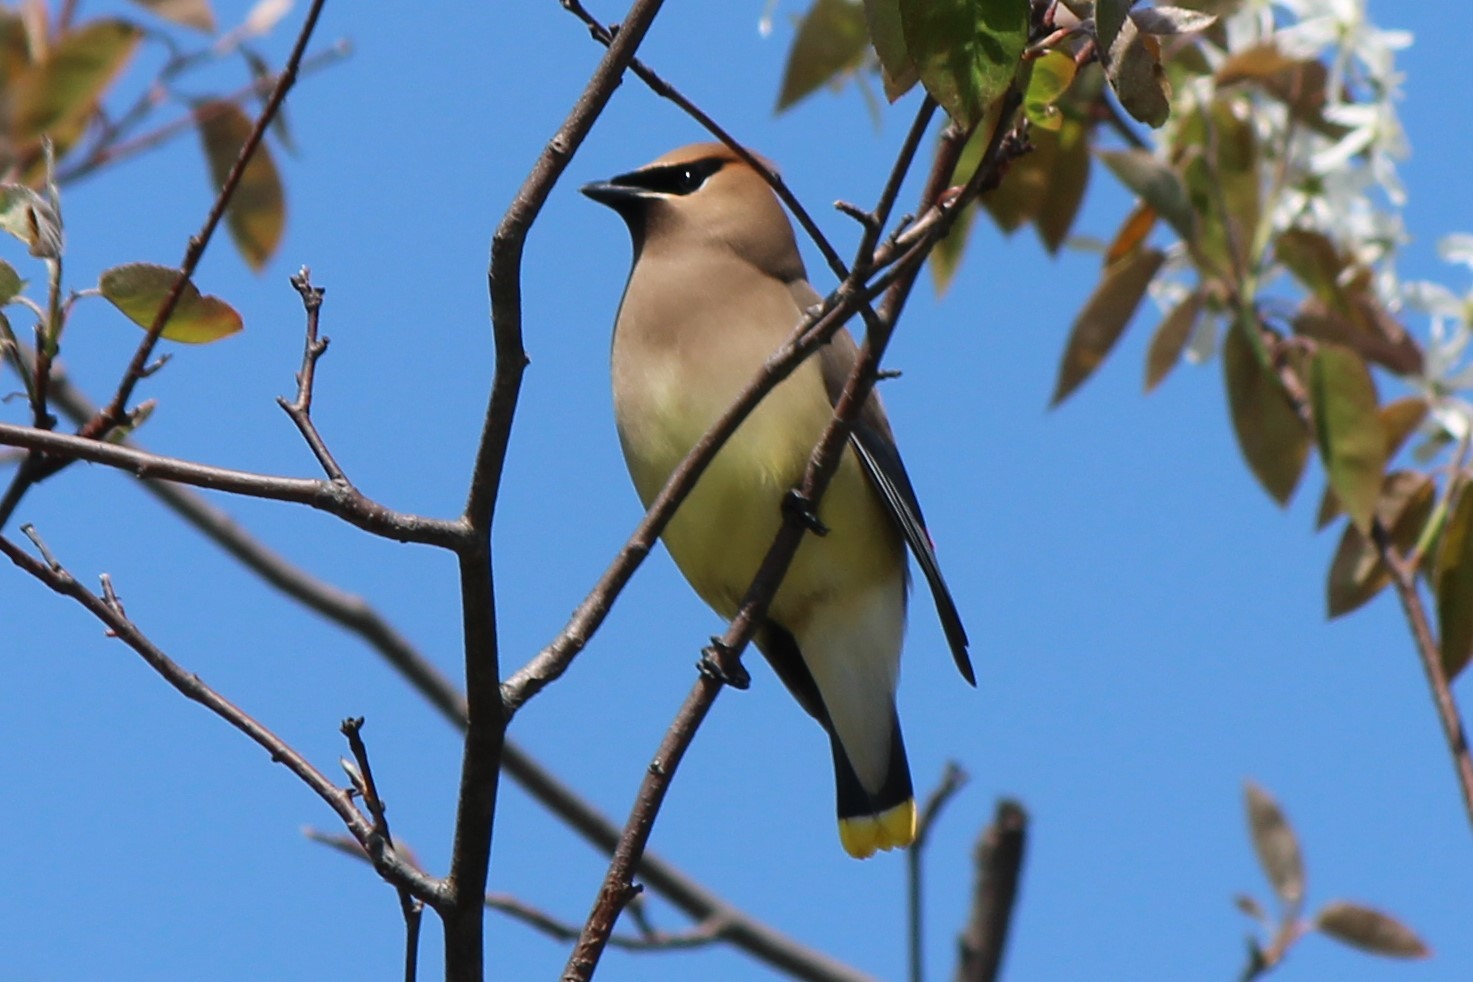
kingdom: Animalia
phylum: Chordata
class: Aves
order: Passeriformes
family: Bombycillidae
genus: Bombycilla
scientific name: Bombycilla cedrorum
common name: Cedar waxwing
